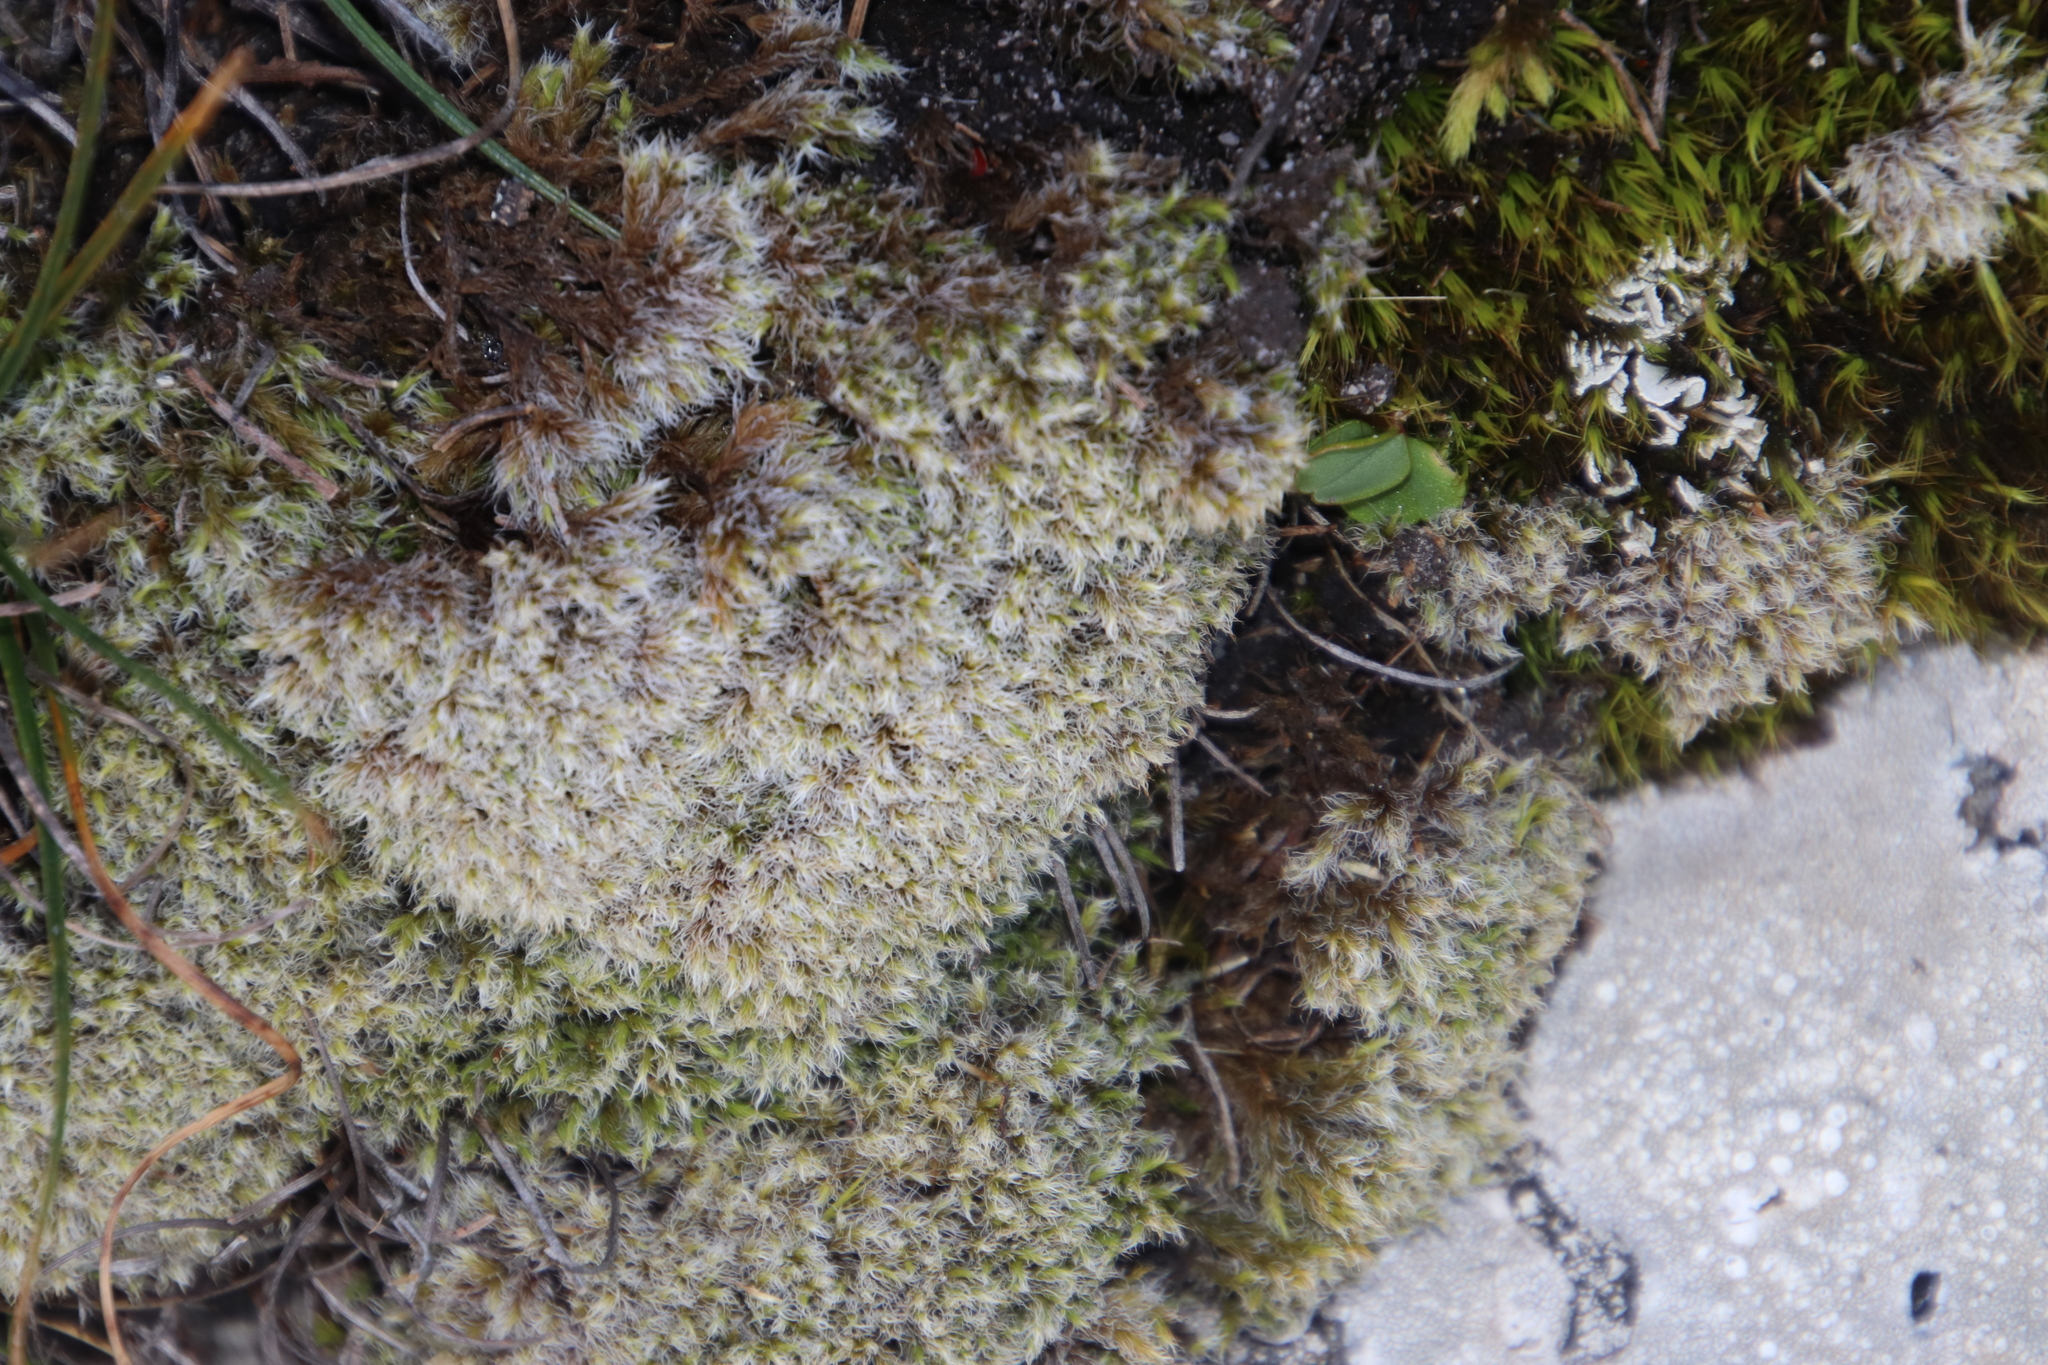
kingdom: Plantae
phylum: Bryophyta
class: Bryopsida
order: Grimmiales
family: Grimmiaceae
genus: Racomitrium
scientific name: Racomitrium lanuginosum
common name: Hoary rock moss
